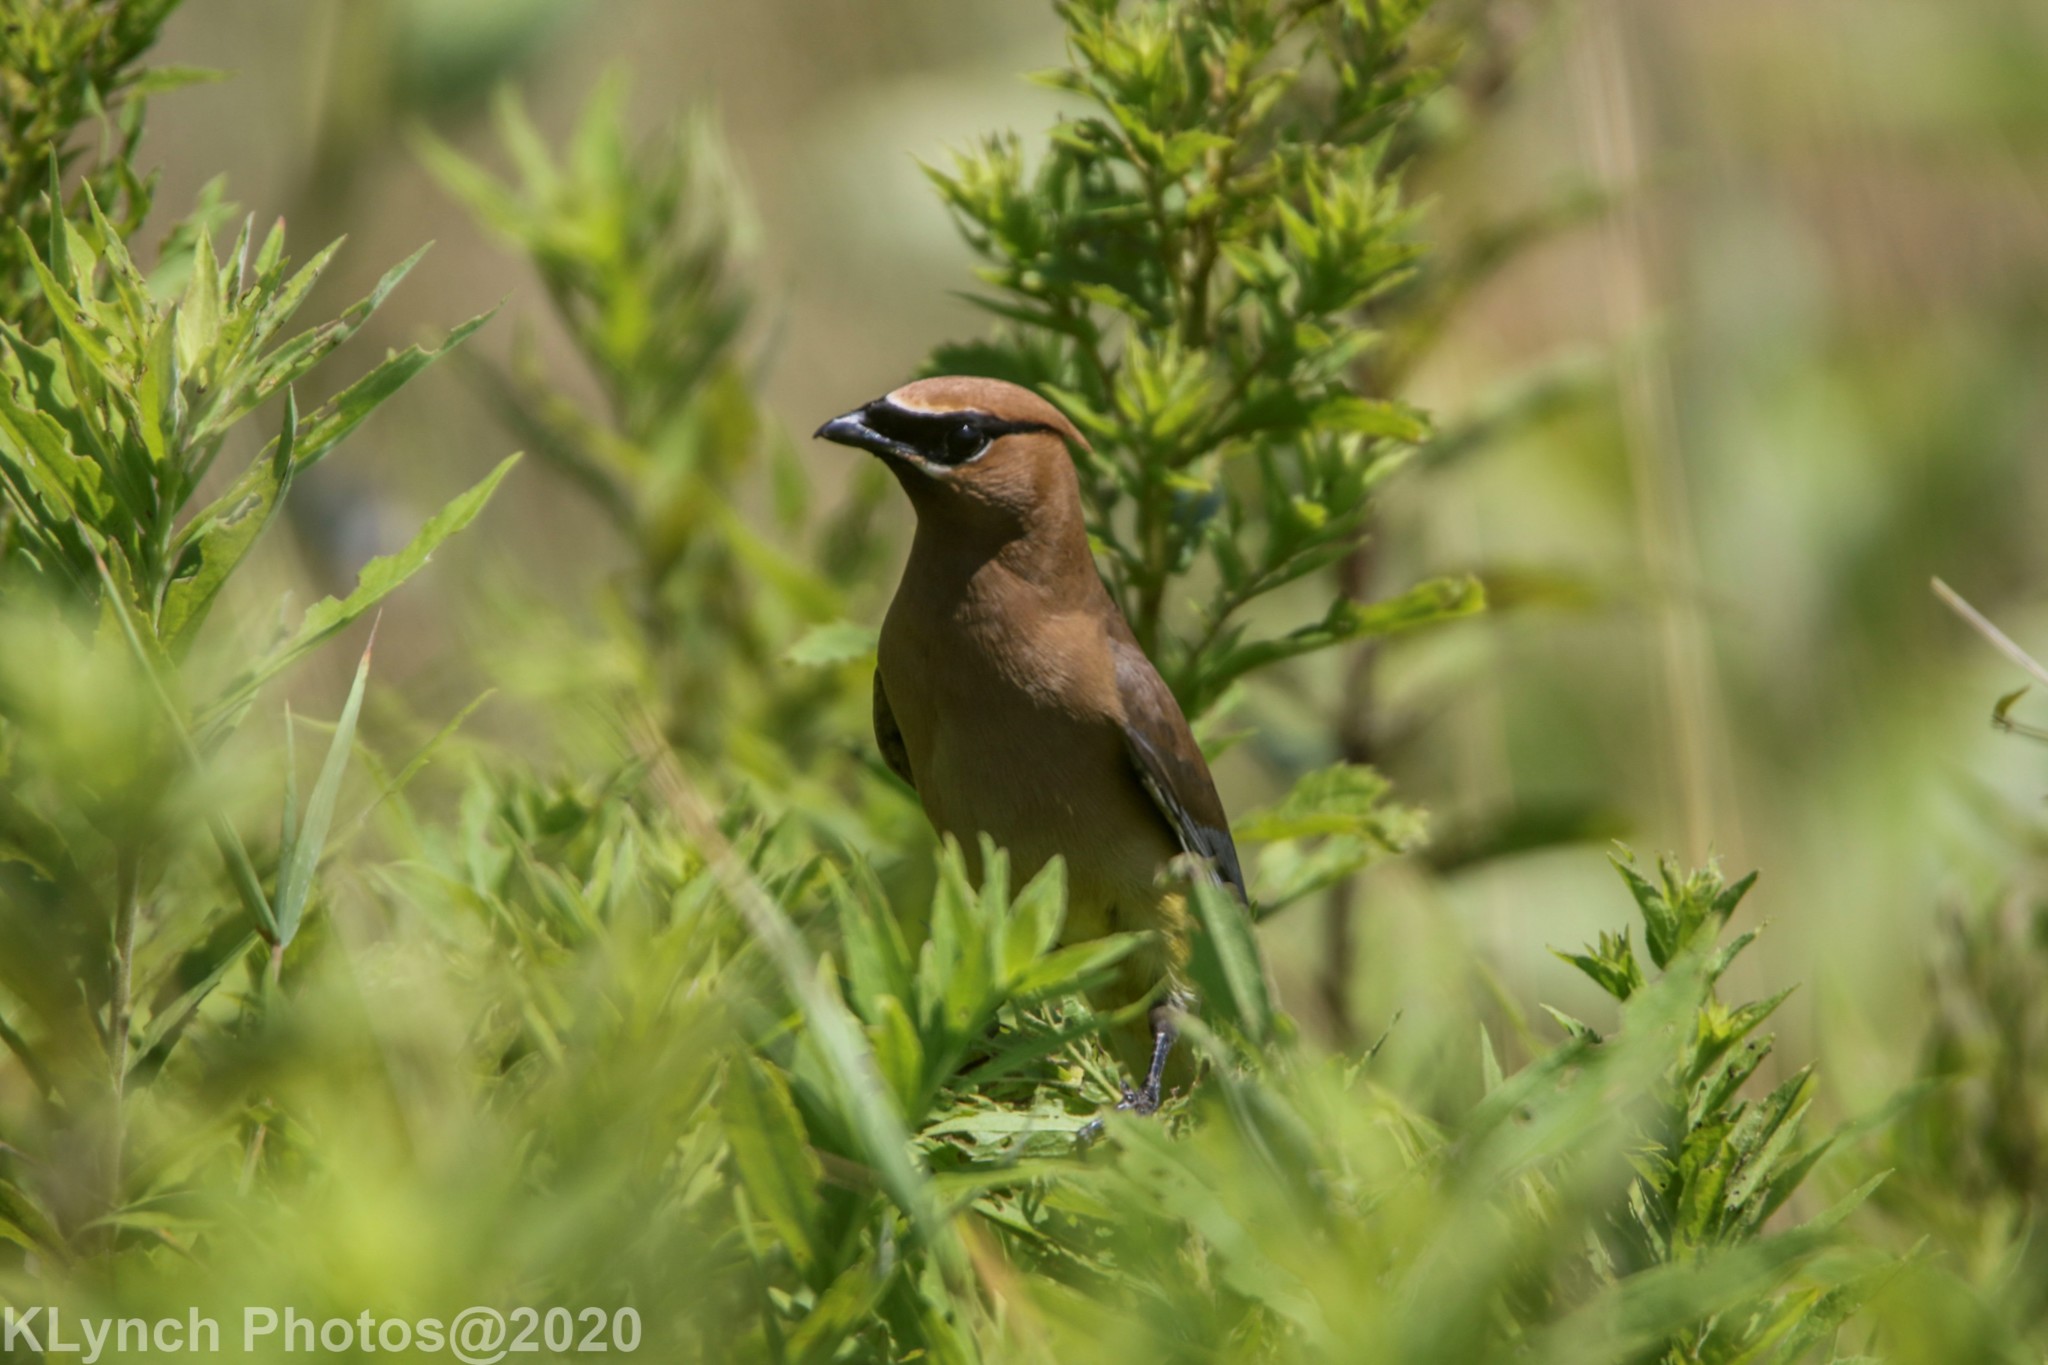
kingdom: Animalia
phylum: Chordata
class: Aves
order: Passeriformes
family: Bombycillidae
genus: Bombycilla
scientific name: Bombycilla cedrorum
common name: Cedar waxwing
